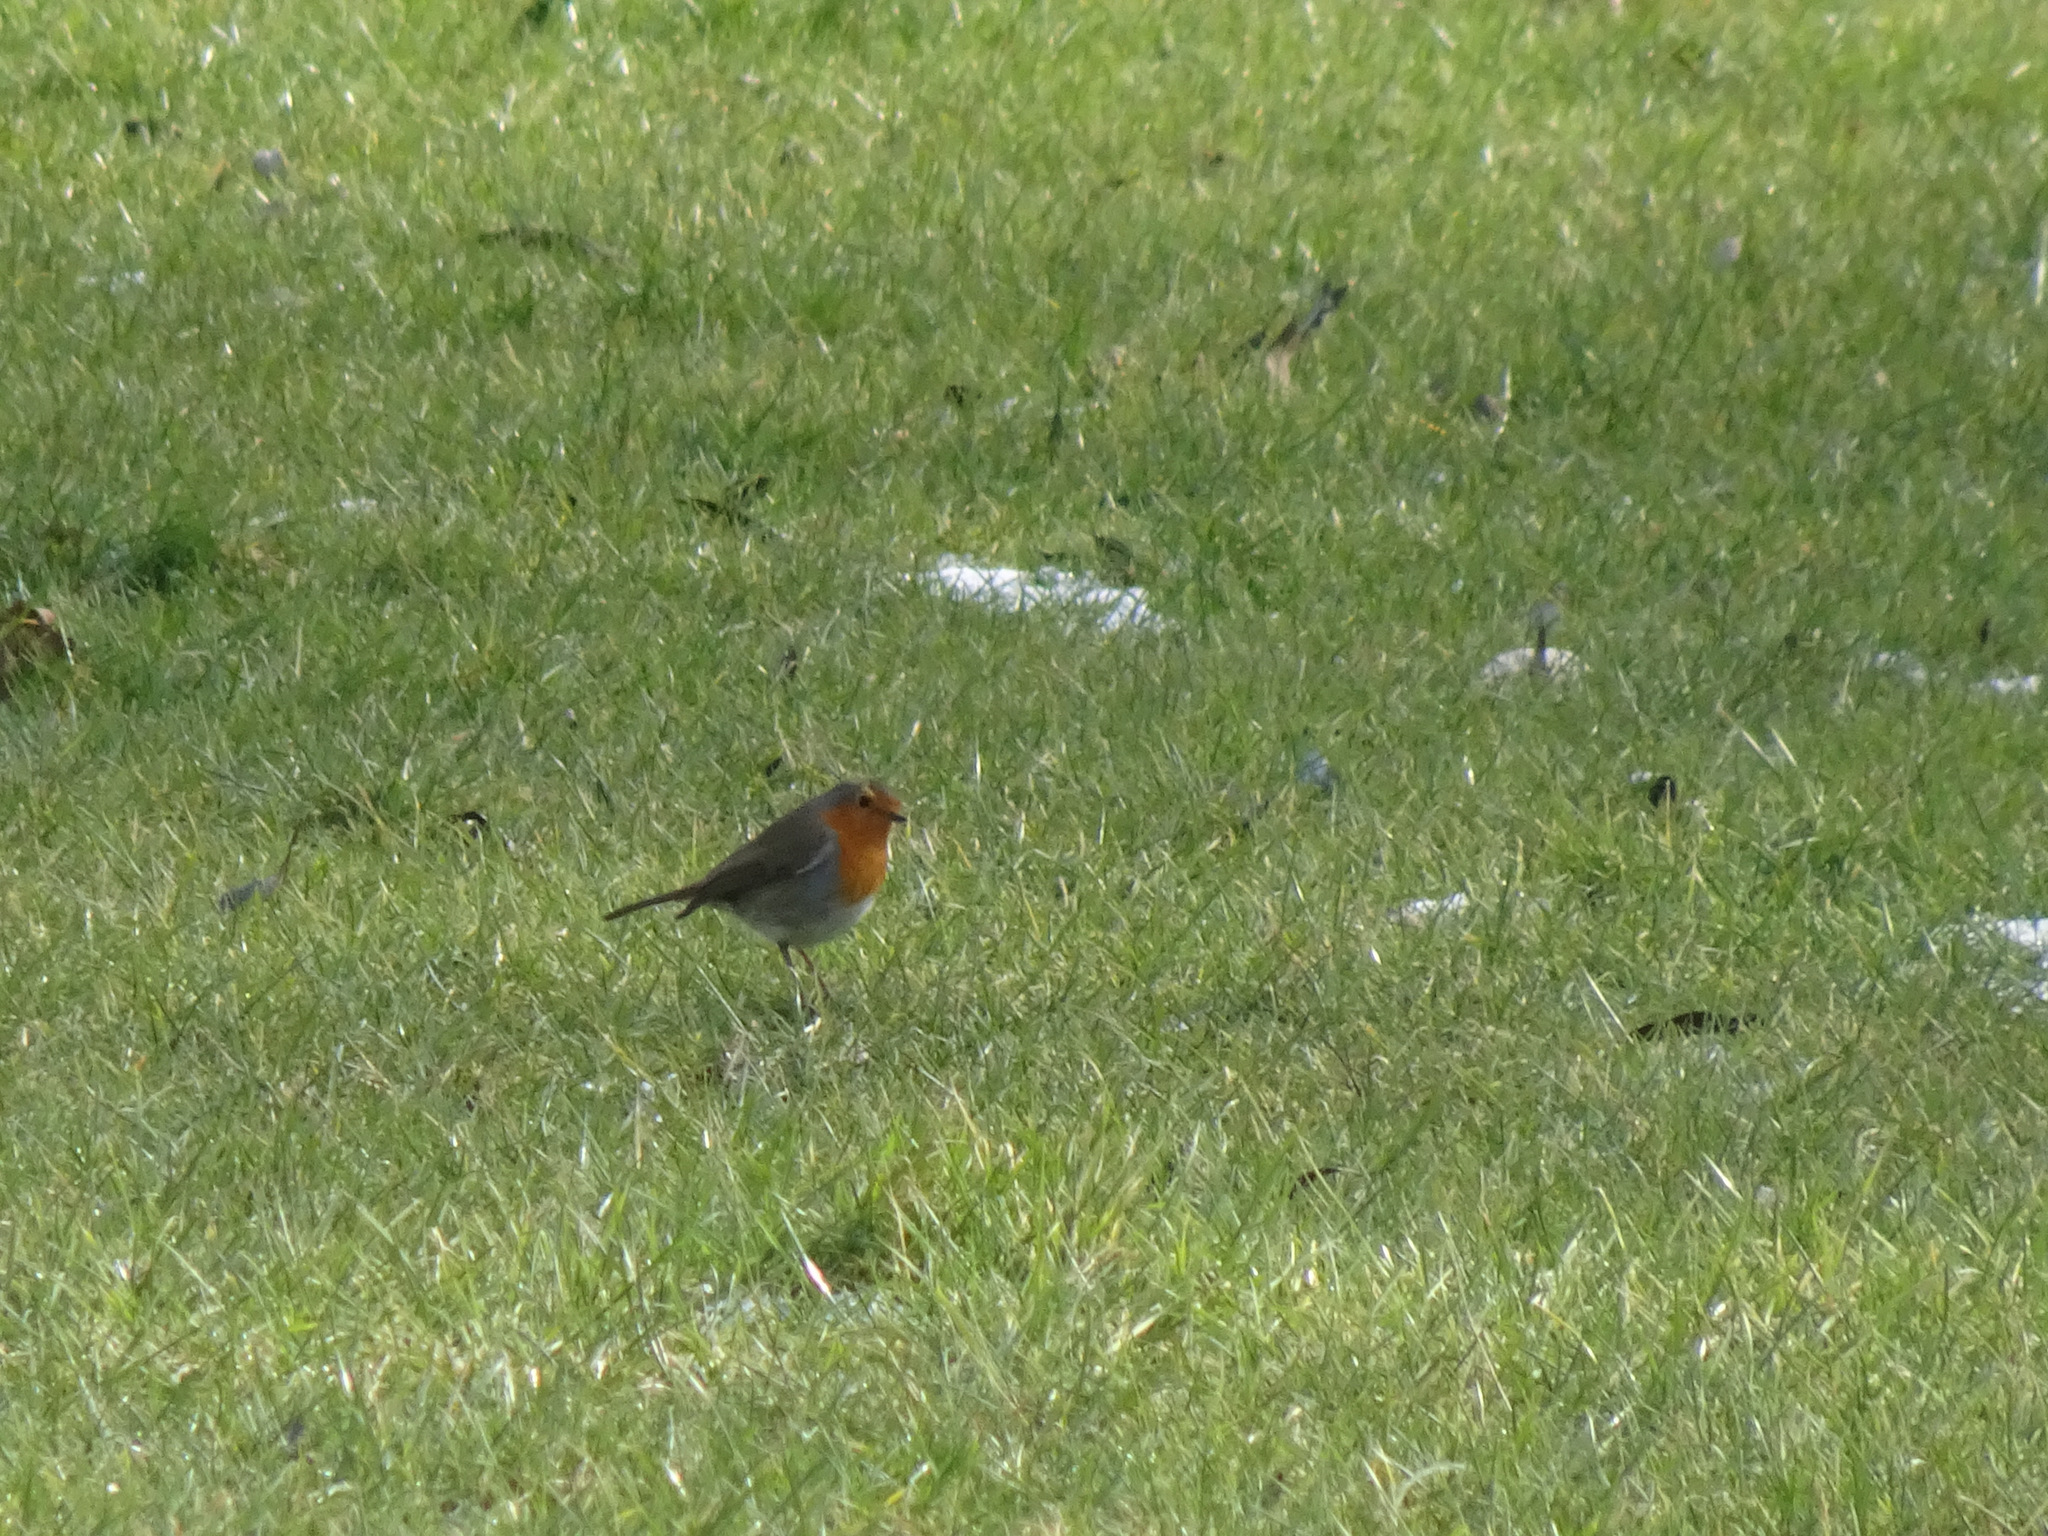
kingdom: Animalia
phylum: Chordata
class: Aves
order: Passeriformes
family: Muscicapidae
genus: Erithacus
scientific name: Erithacus rubecula
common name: European robin
